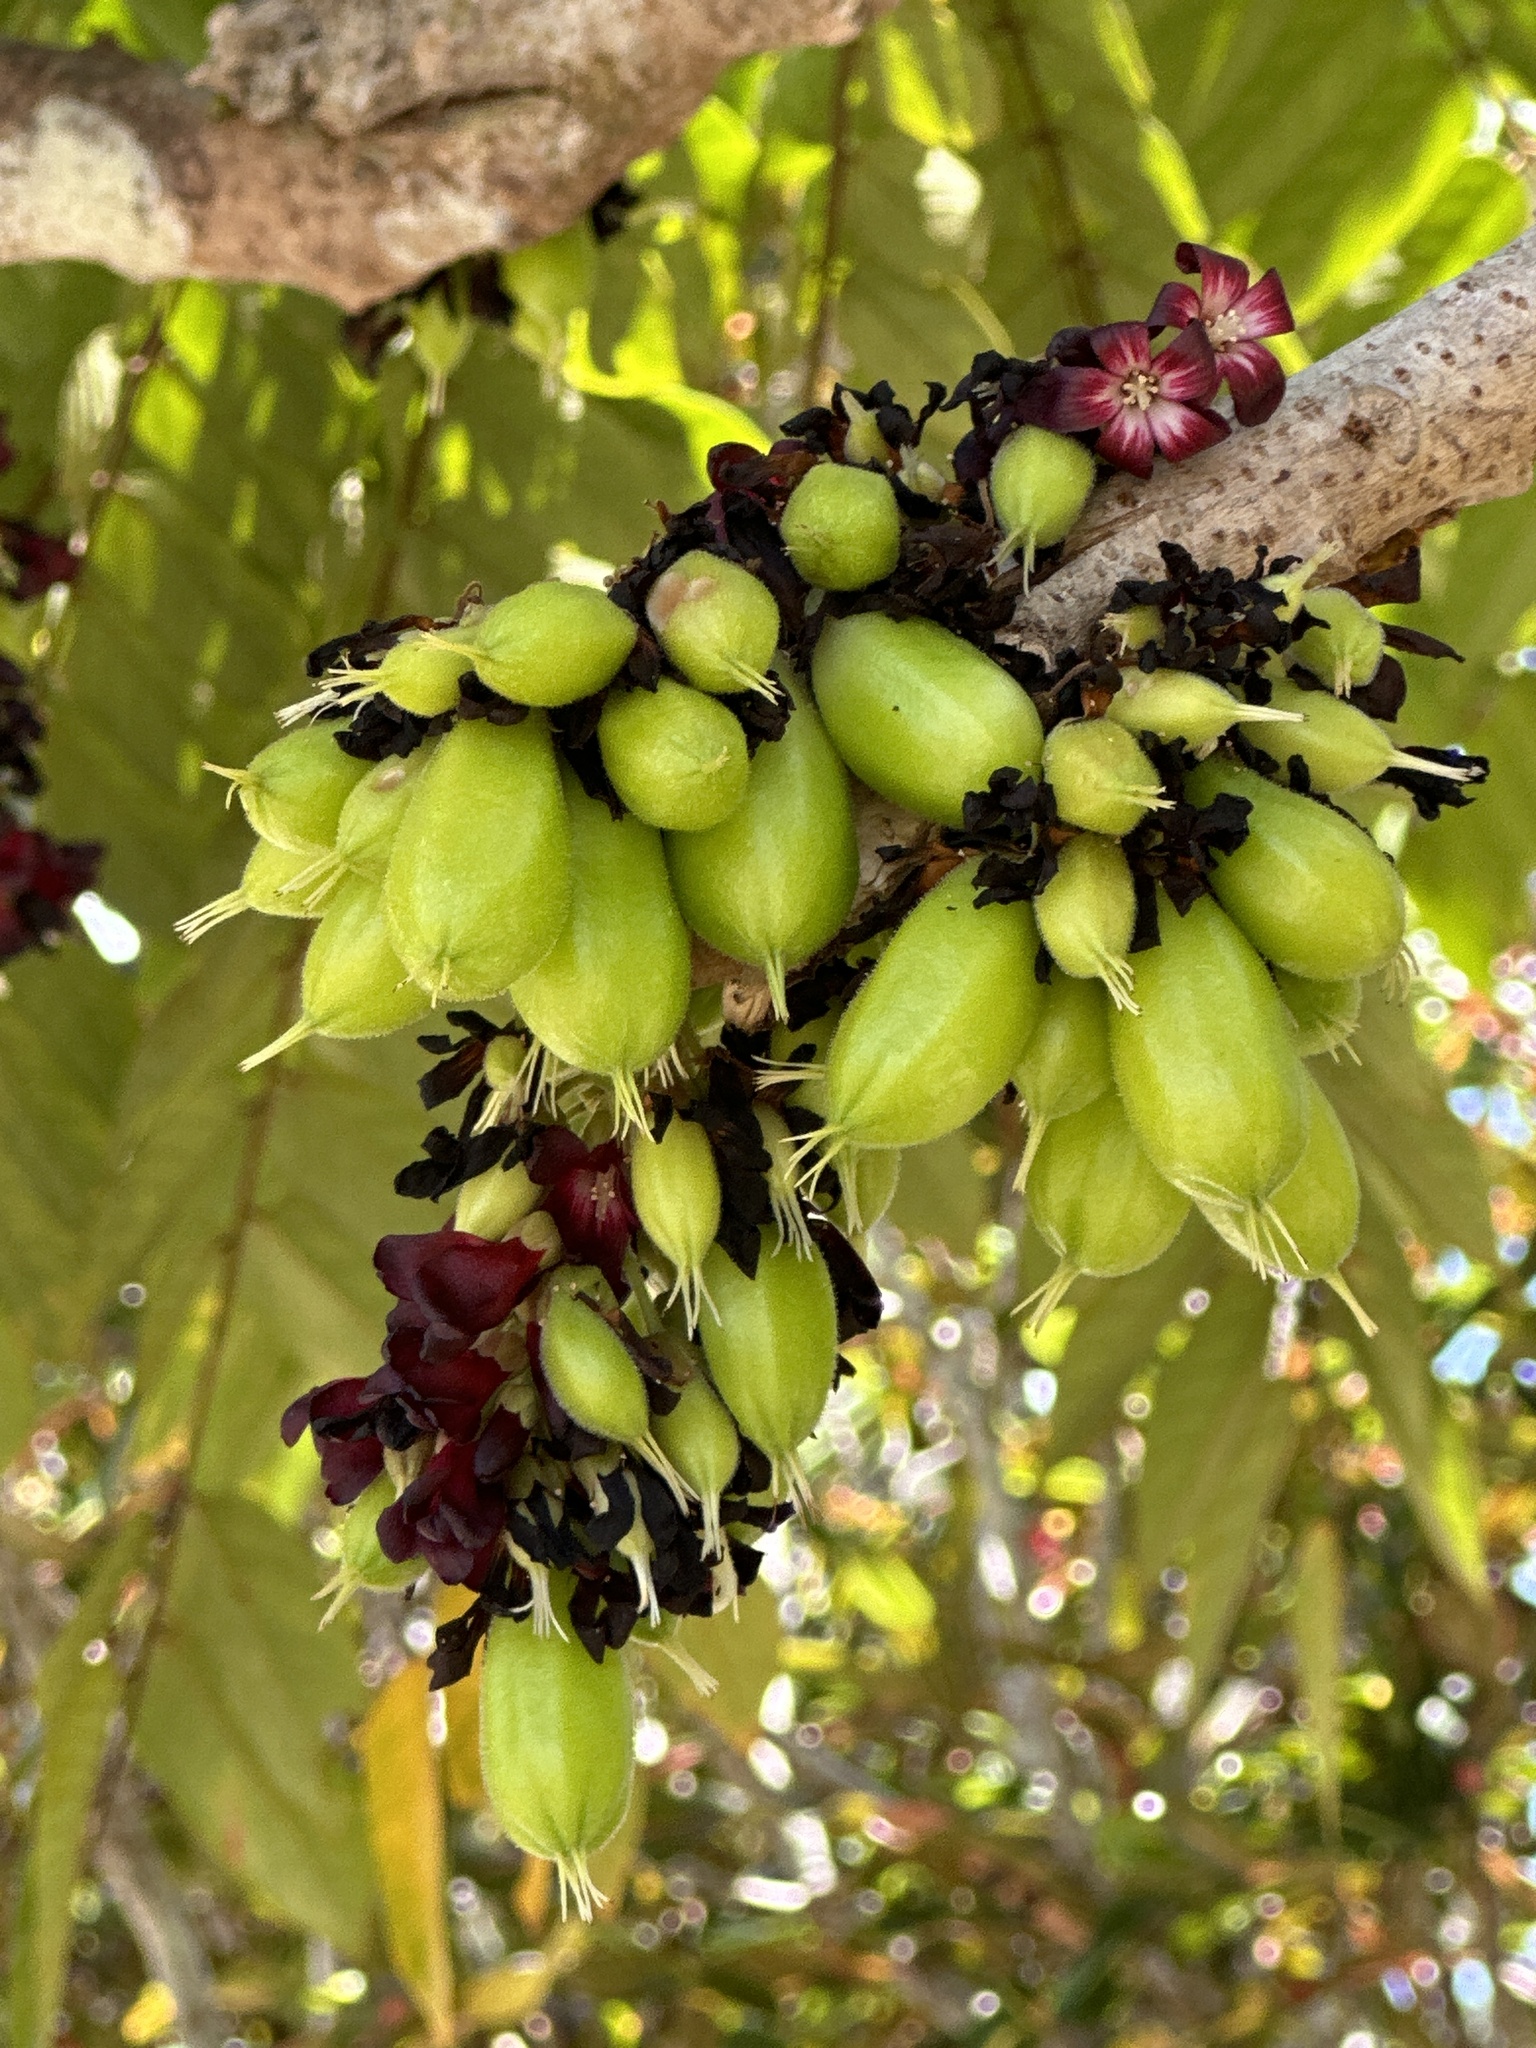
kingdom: Plantae
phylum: Tracheophyta
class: Magnoliopsida
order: Oxalidales
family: Oxalidaceae
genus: Averrhoa
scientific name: Averrhoa bilimbi
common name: Bilimbi
